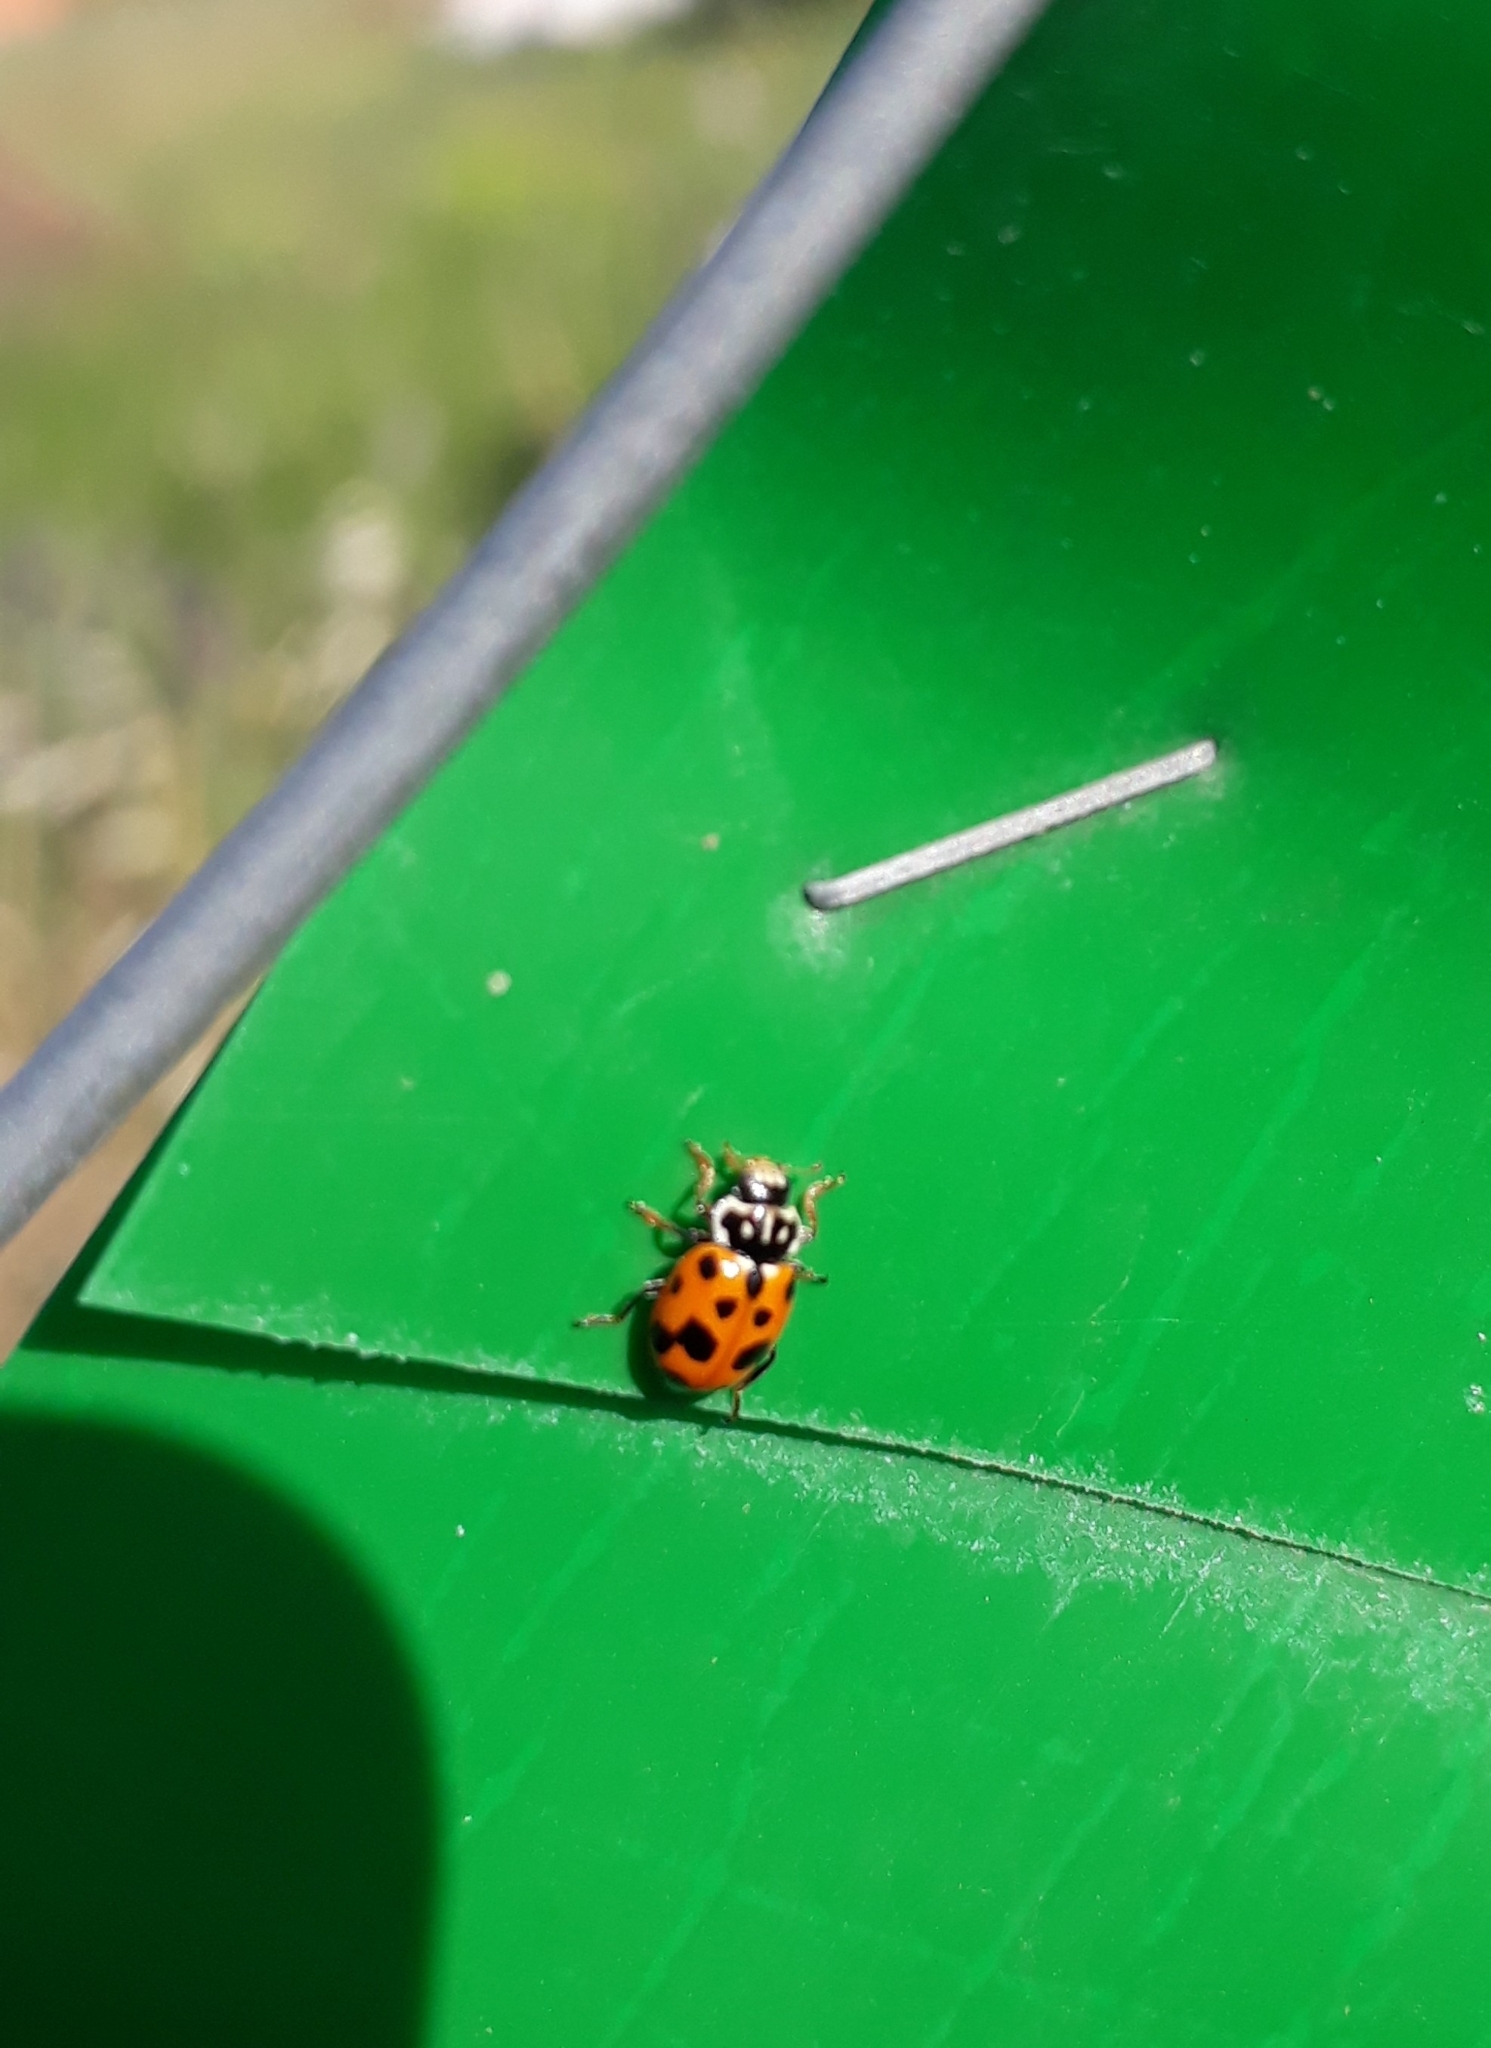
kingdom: Animalia
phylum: Arthropoda
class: Insecta
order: Coleoptera
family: Coccinellidae
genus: Hippodamia
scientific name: Hippodamia variegata
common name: Ladybird beetle
